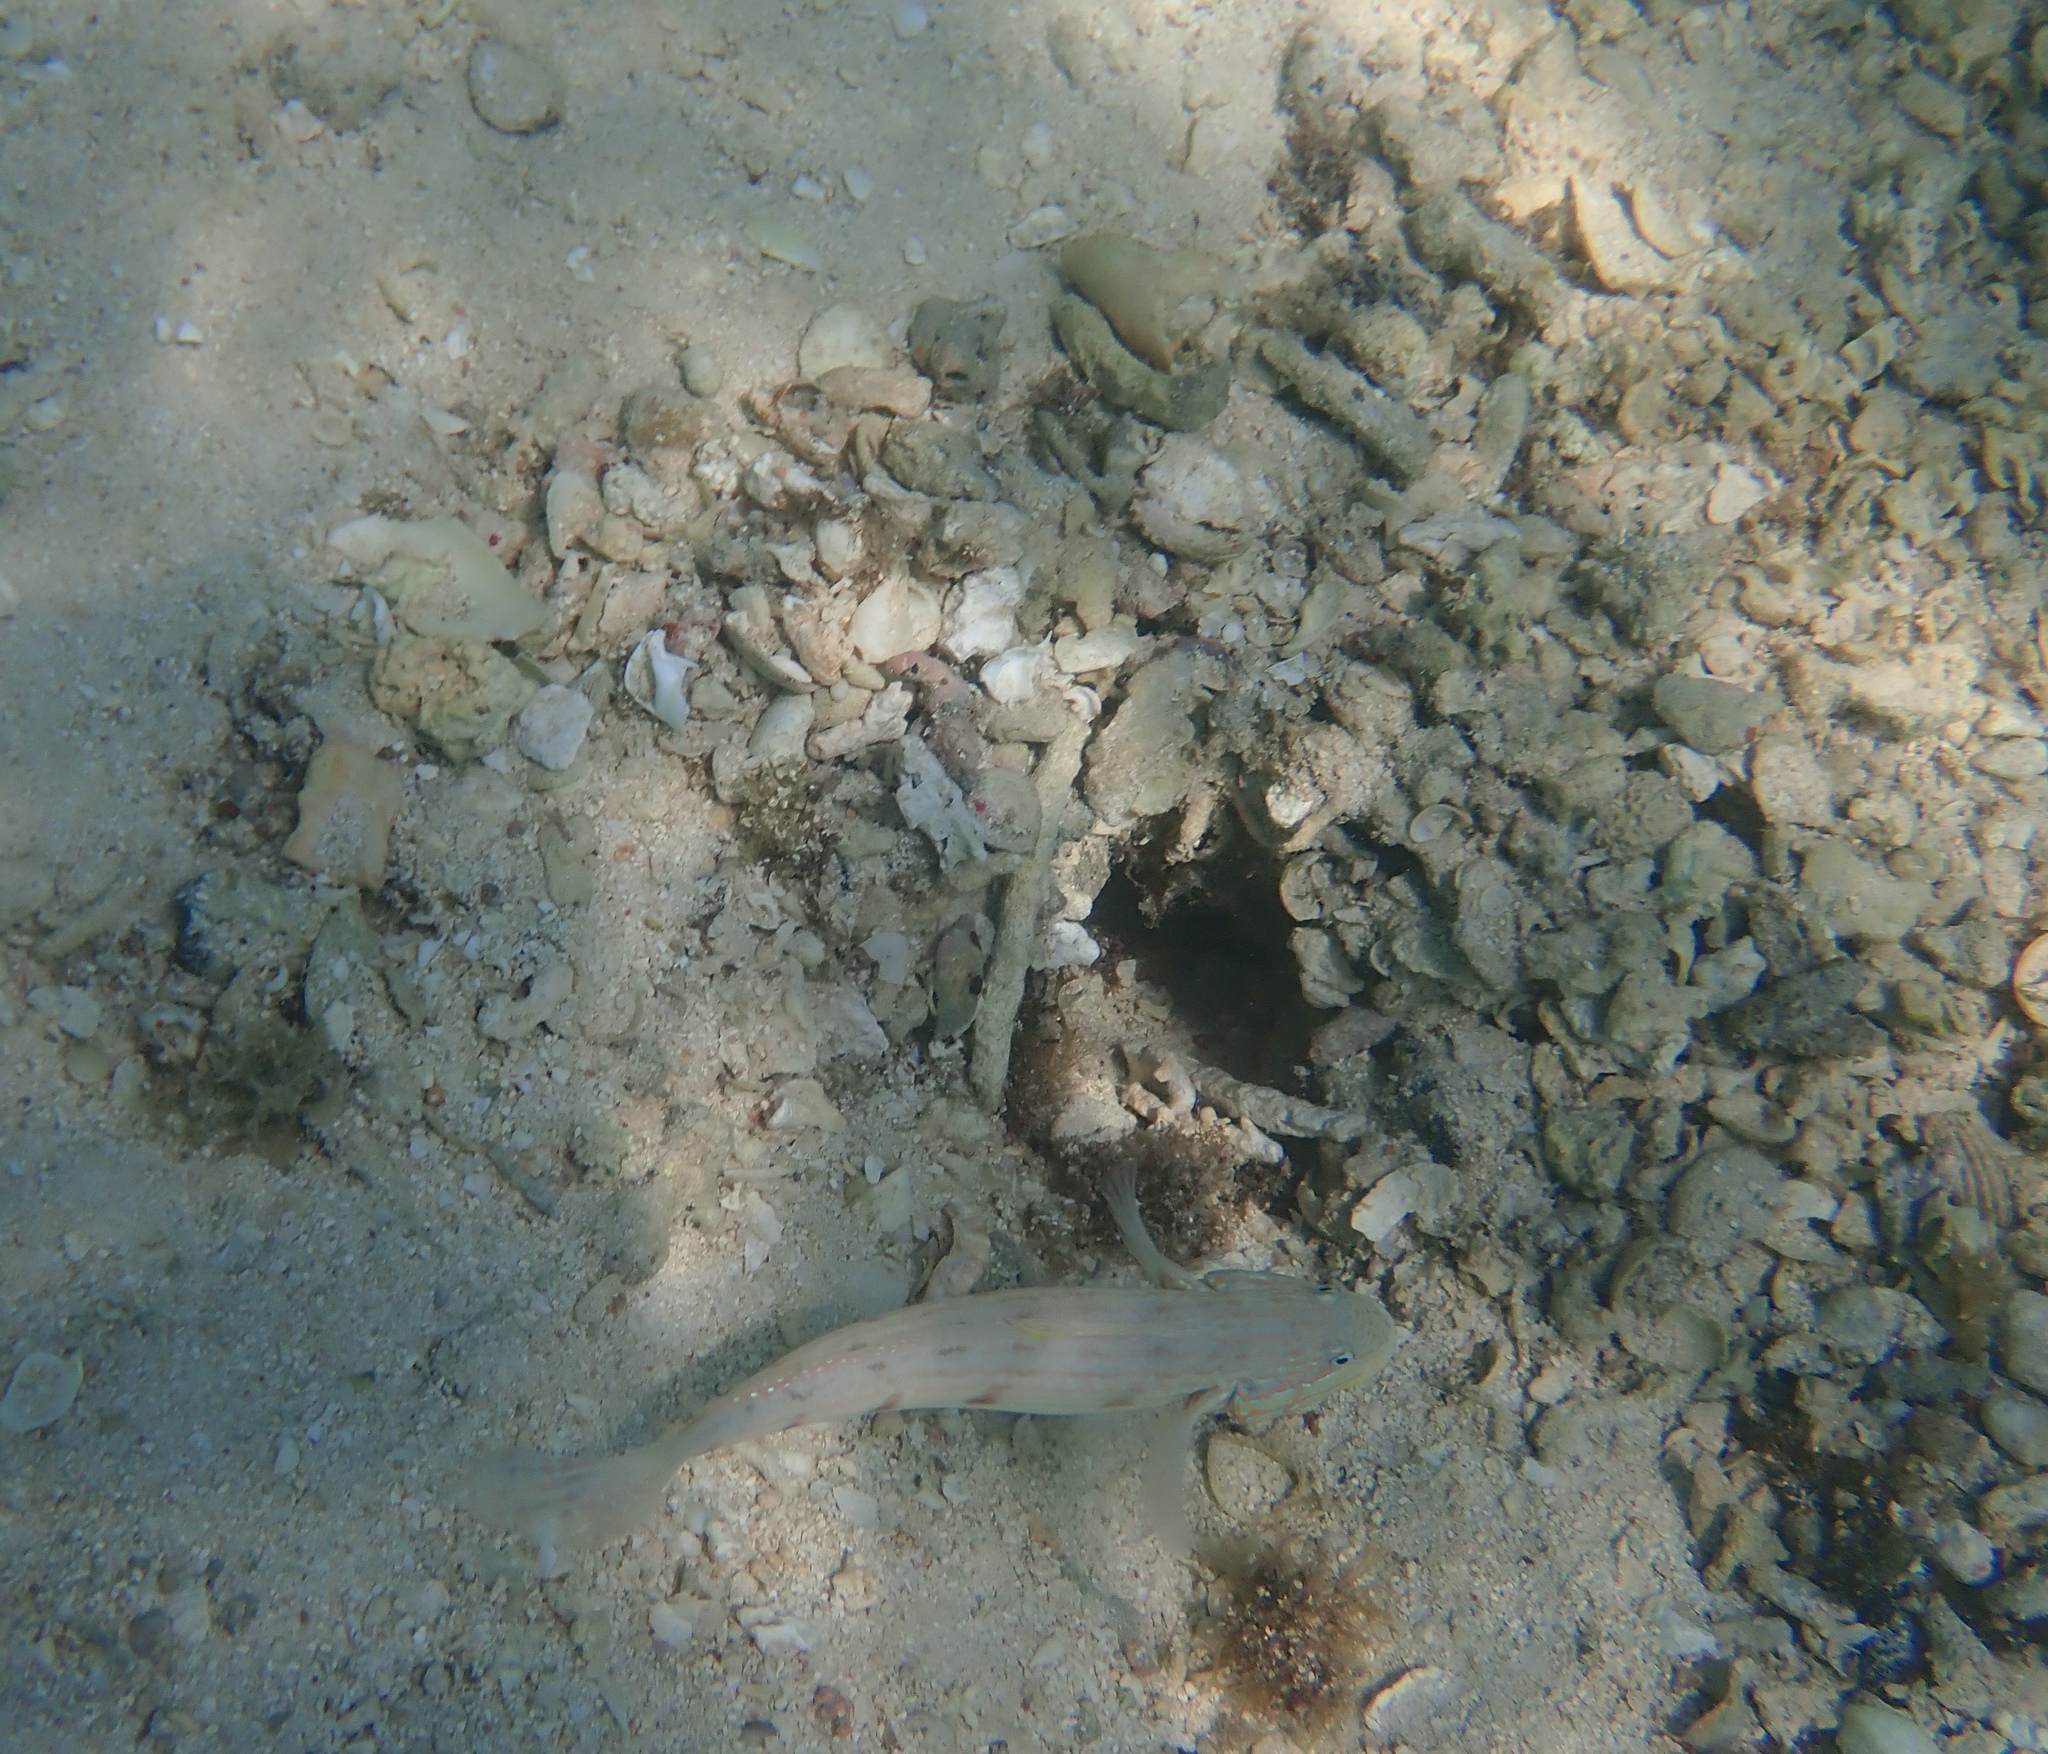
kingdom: Animalia
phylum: Chordata
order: Perciformes
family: Gobiidae
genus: Valenciennea
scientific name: Valenciennea longipinnis
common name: Longfinned goby
